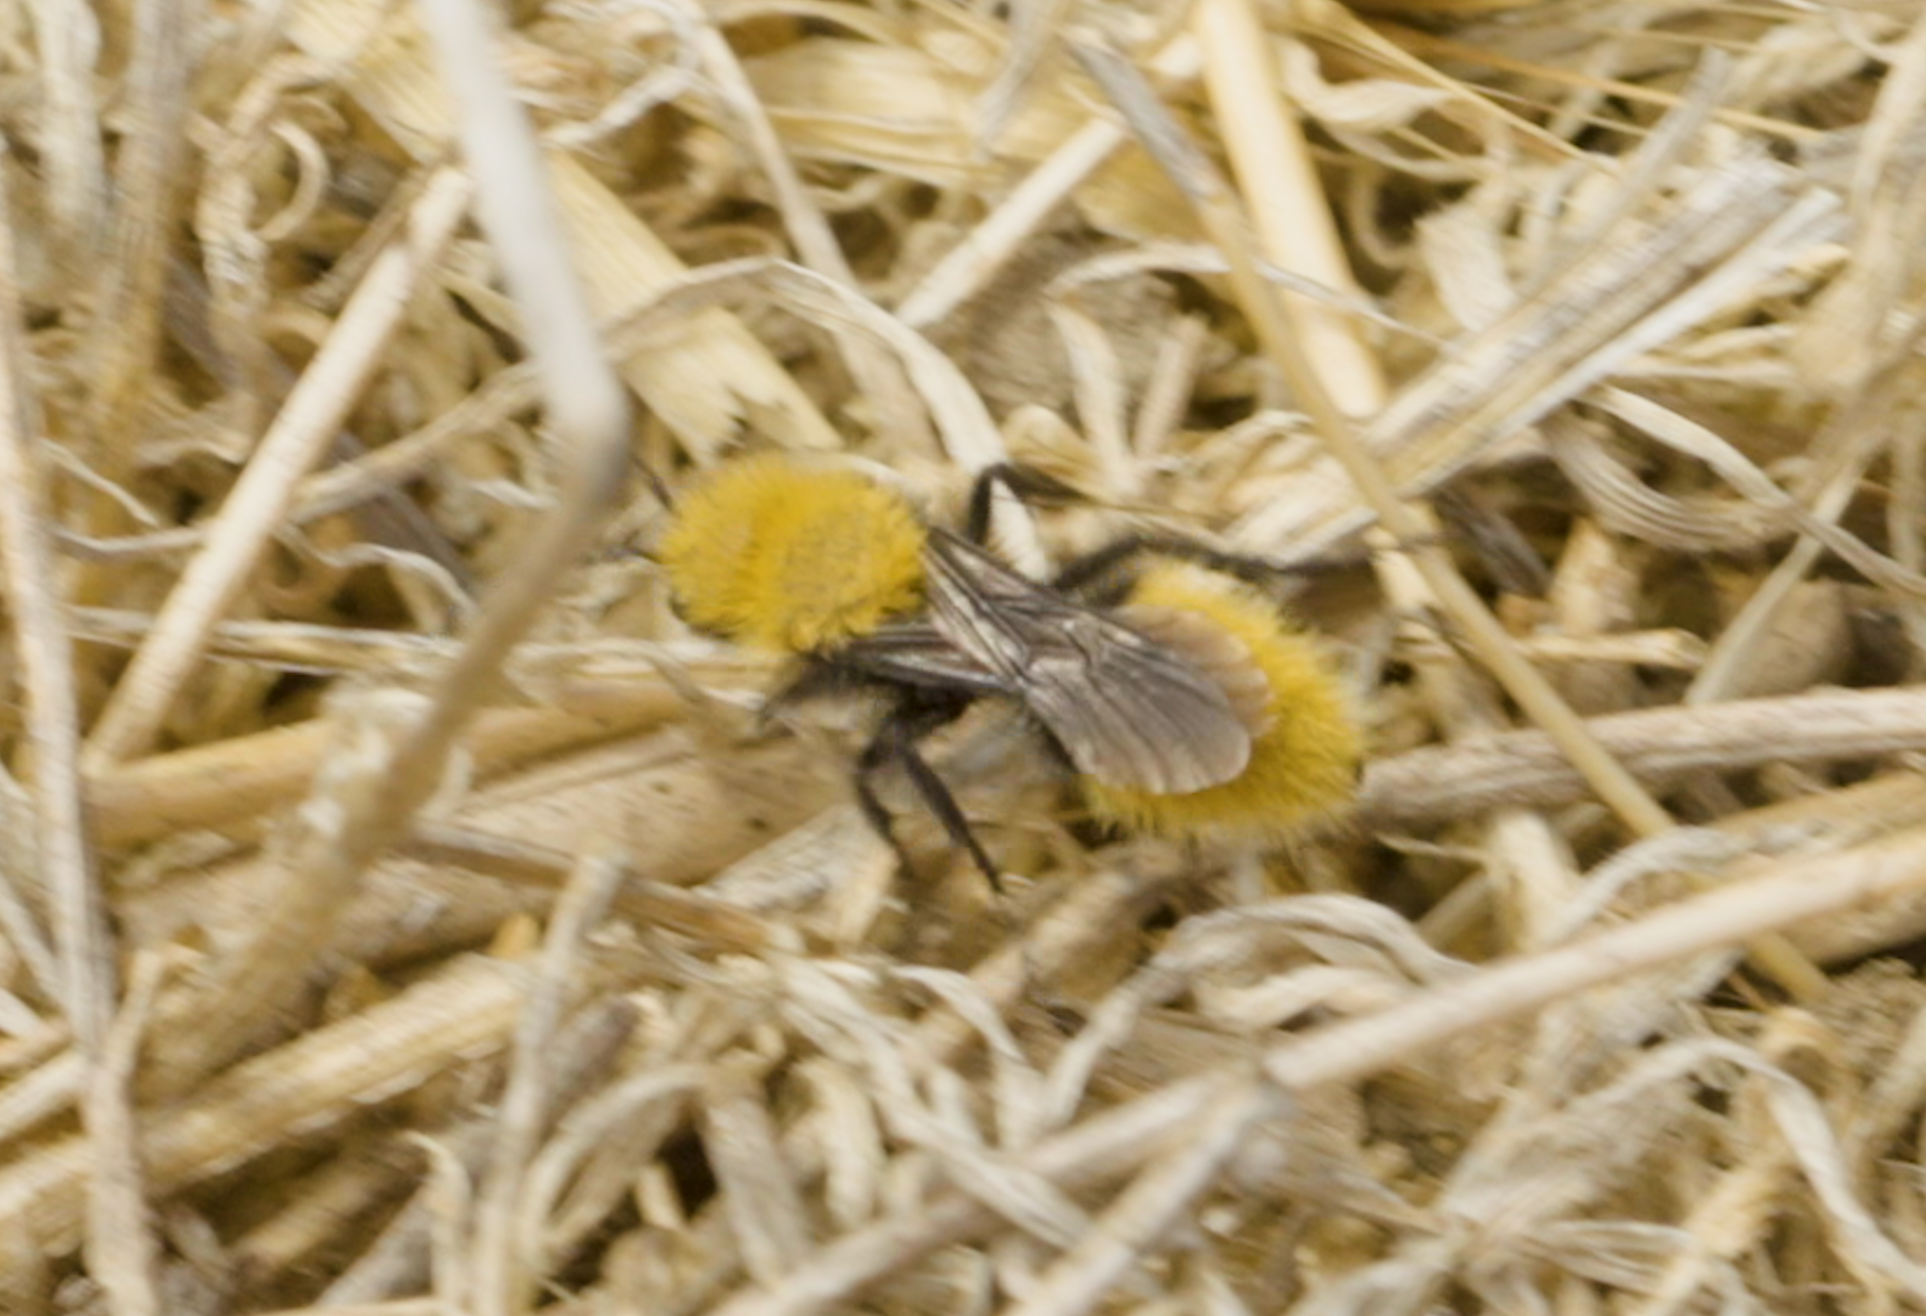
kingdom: Animalia
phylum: Arthropoda
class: Insecta
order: Hymenoptera
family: Mutillidae
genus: Dasymutilla
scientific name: Dasymutilla
